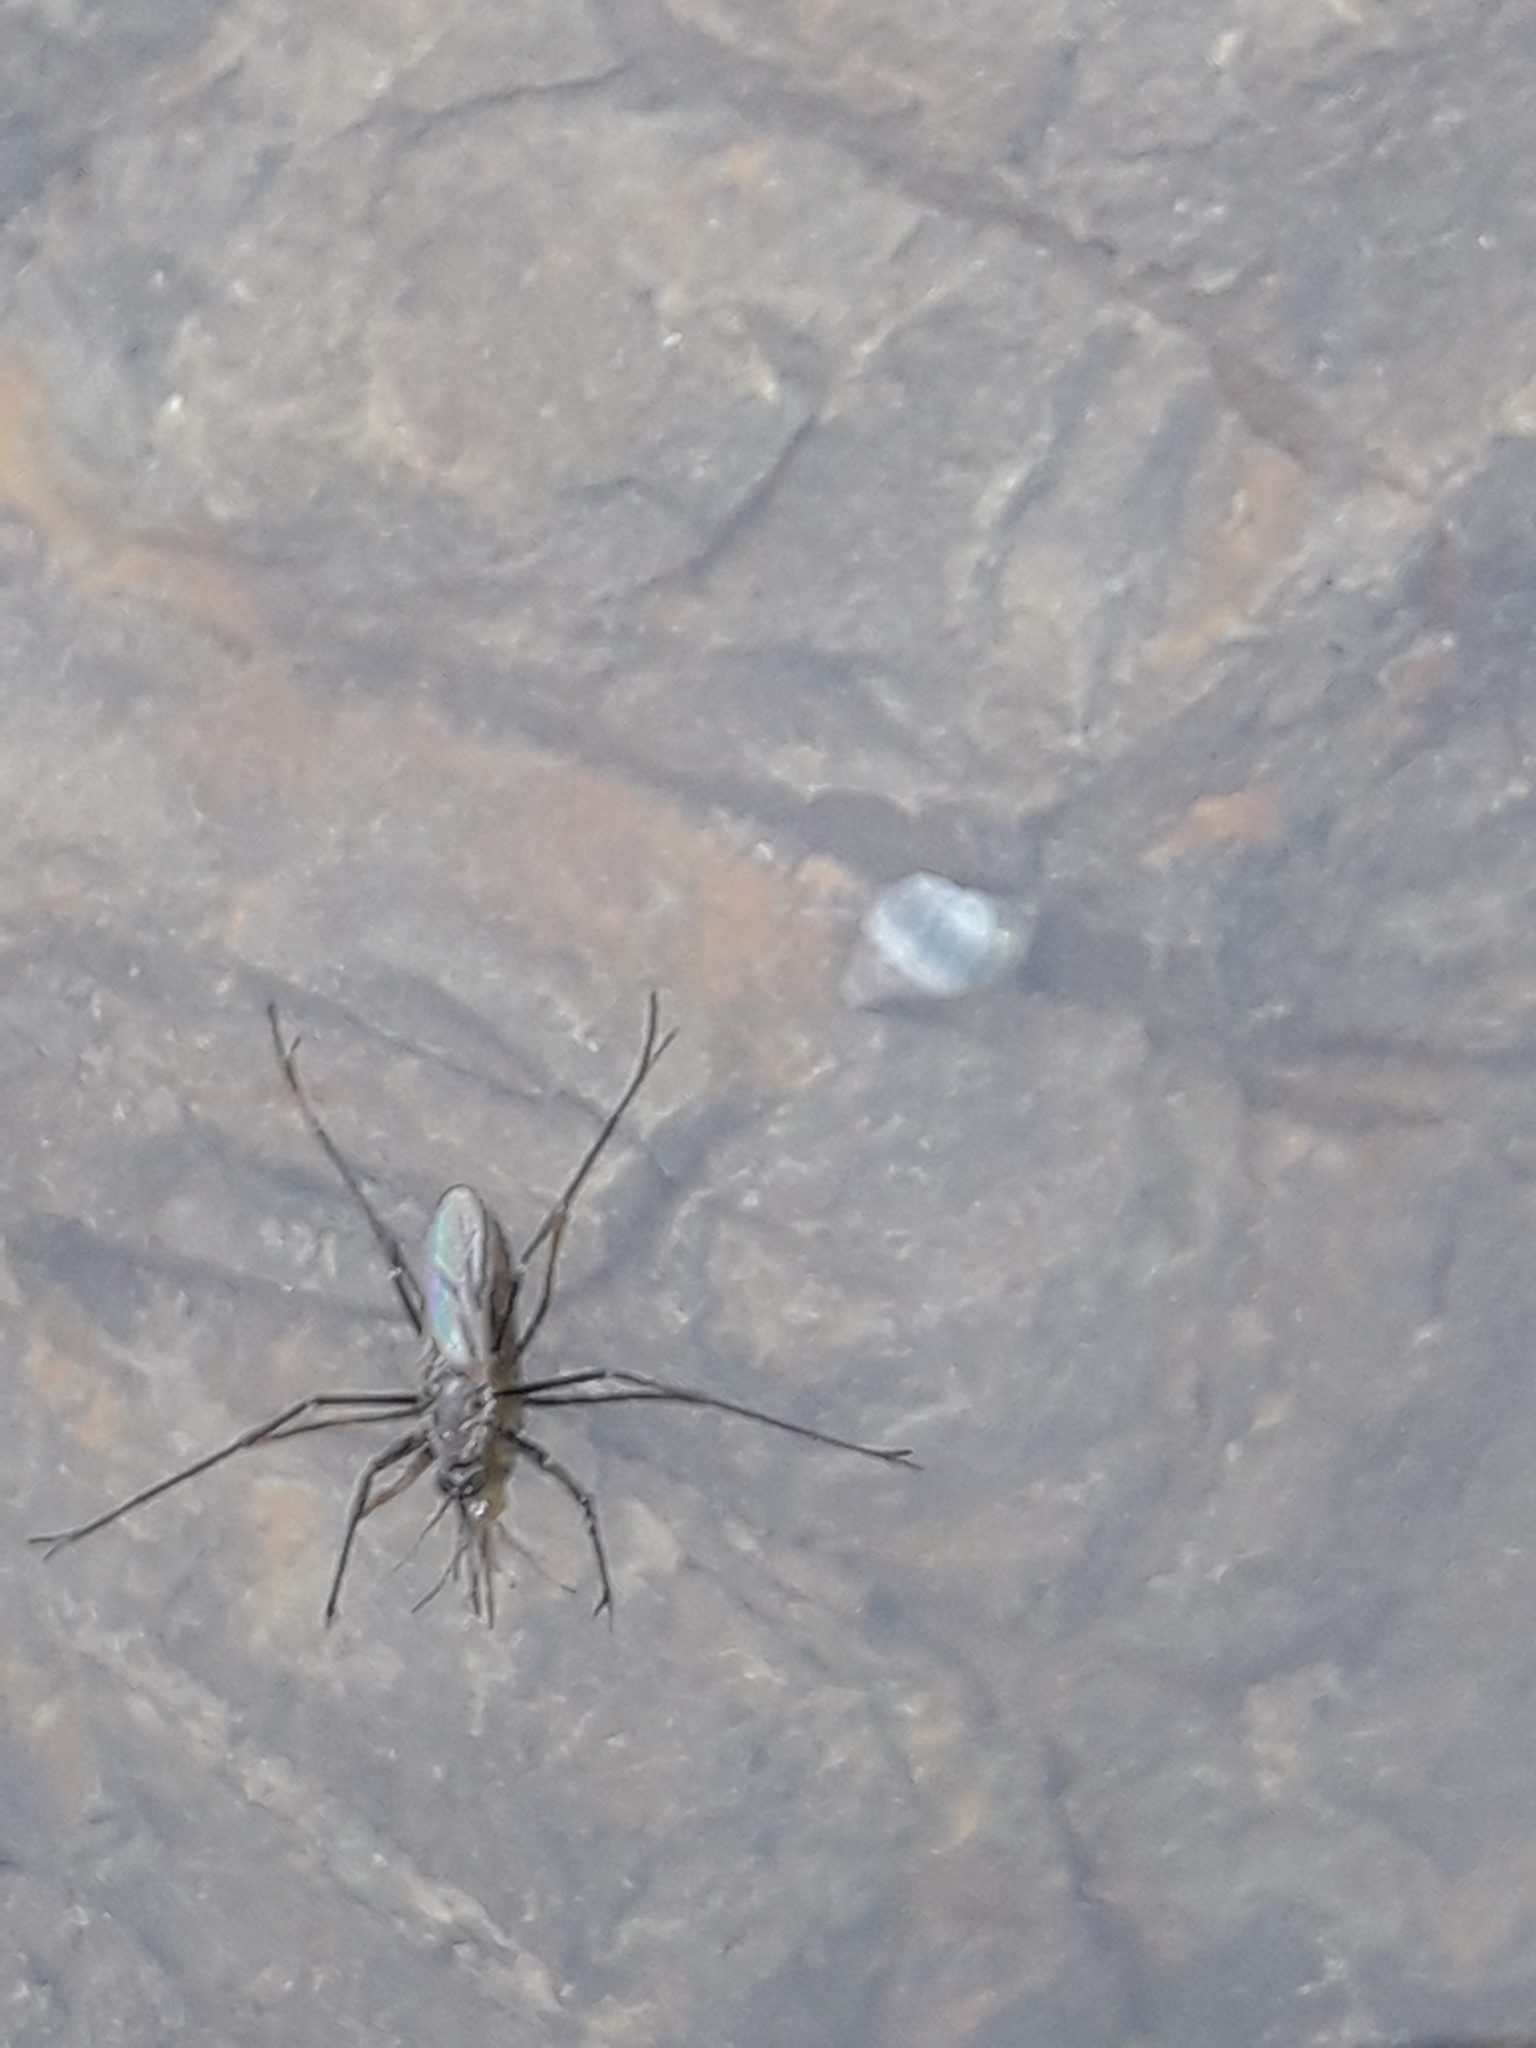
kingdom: Animalia
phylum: Arthropoda
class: Insecta
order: Diptera
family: Culicidae
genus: Opifex
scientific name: Opifex fuscus
